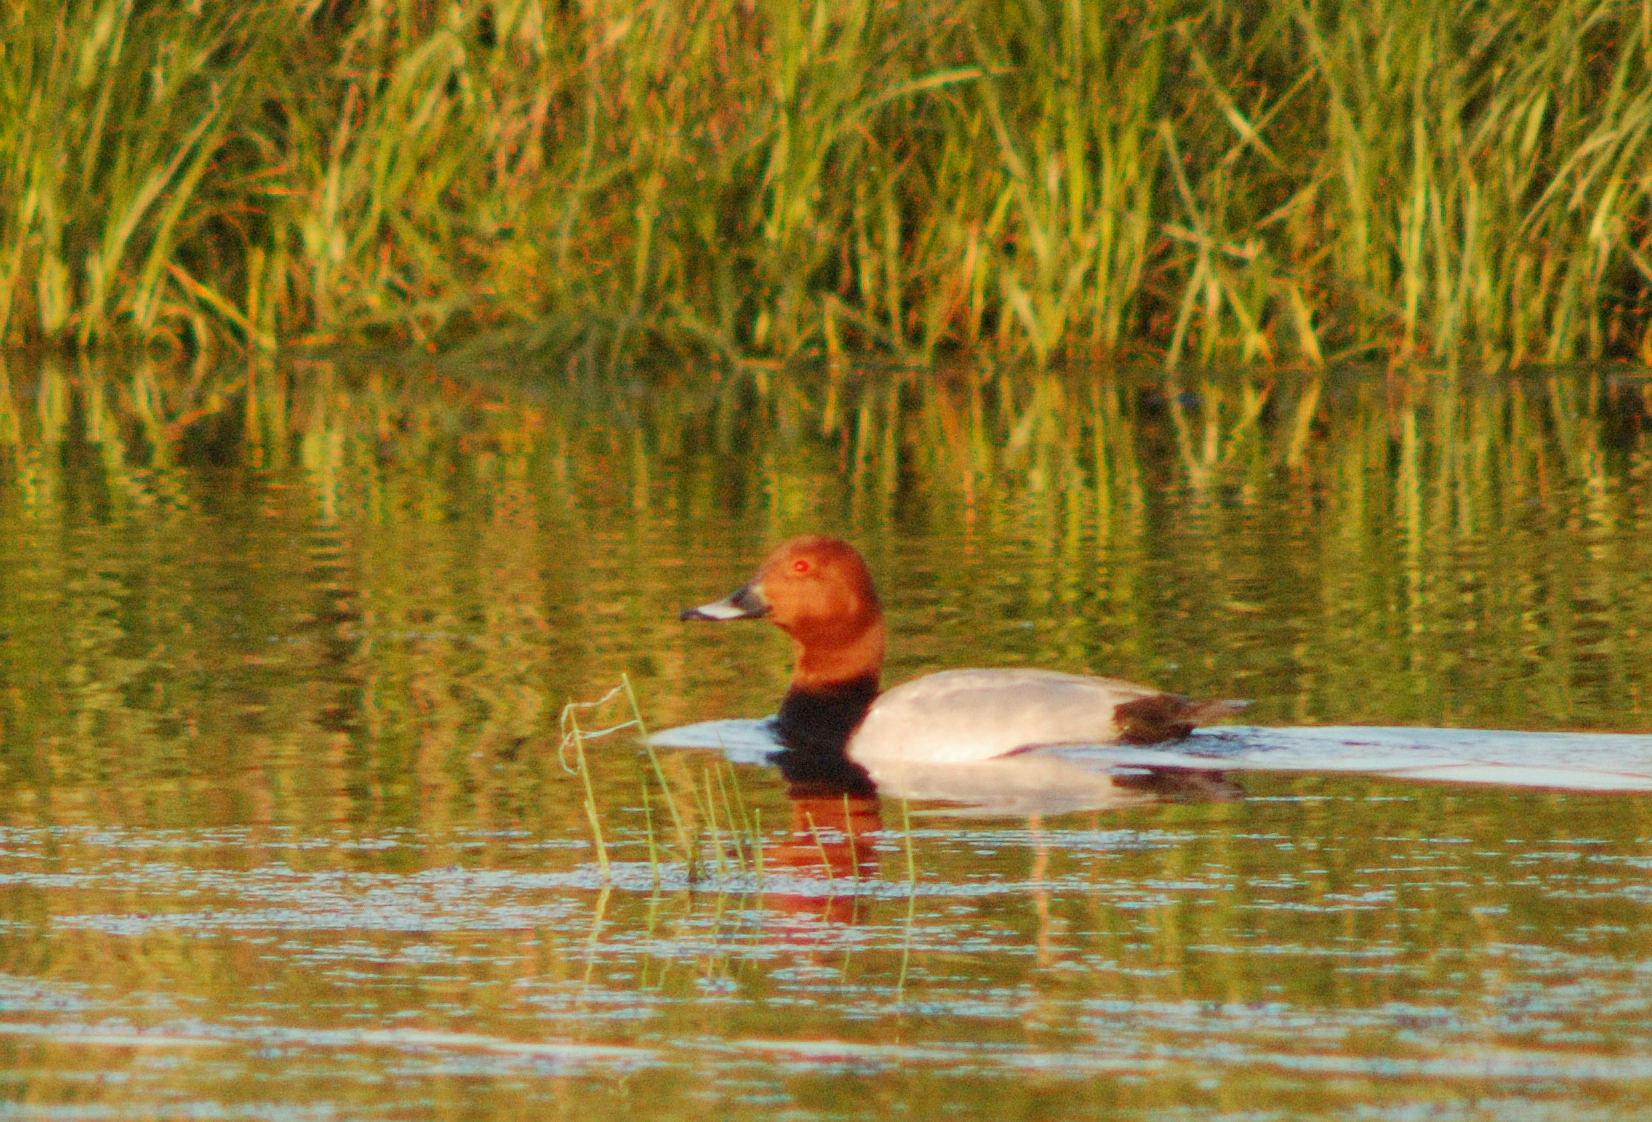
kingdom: Animalia
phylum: Chordata
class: Aves
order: Anseriformes
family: Anatidae
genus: Aythya
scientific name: Aythya ferina
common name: Common pochard
